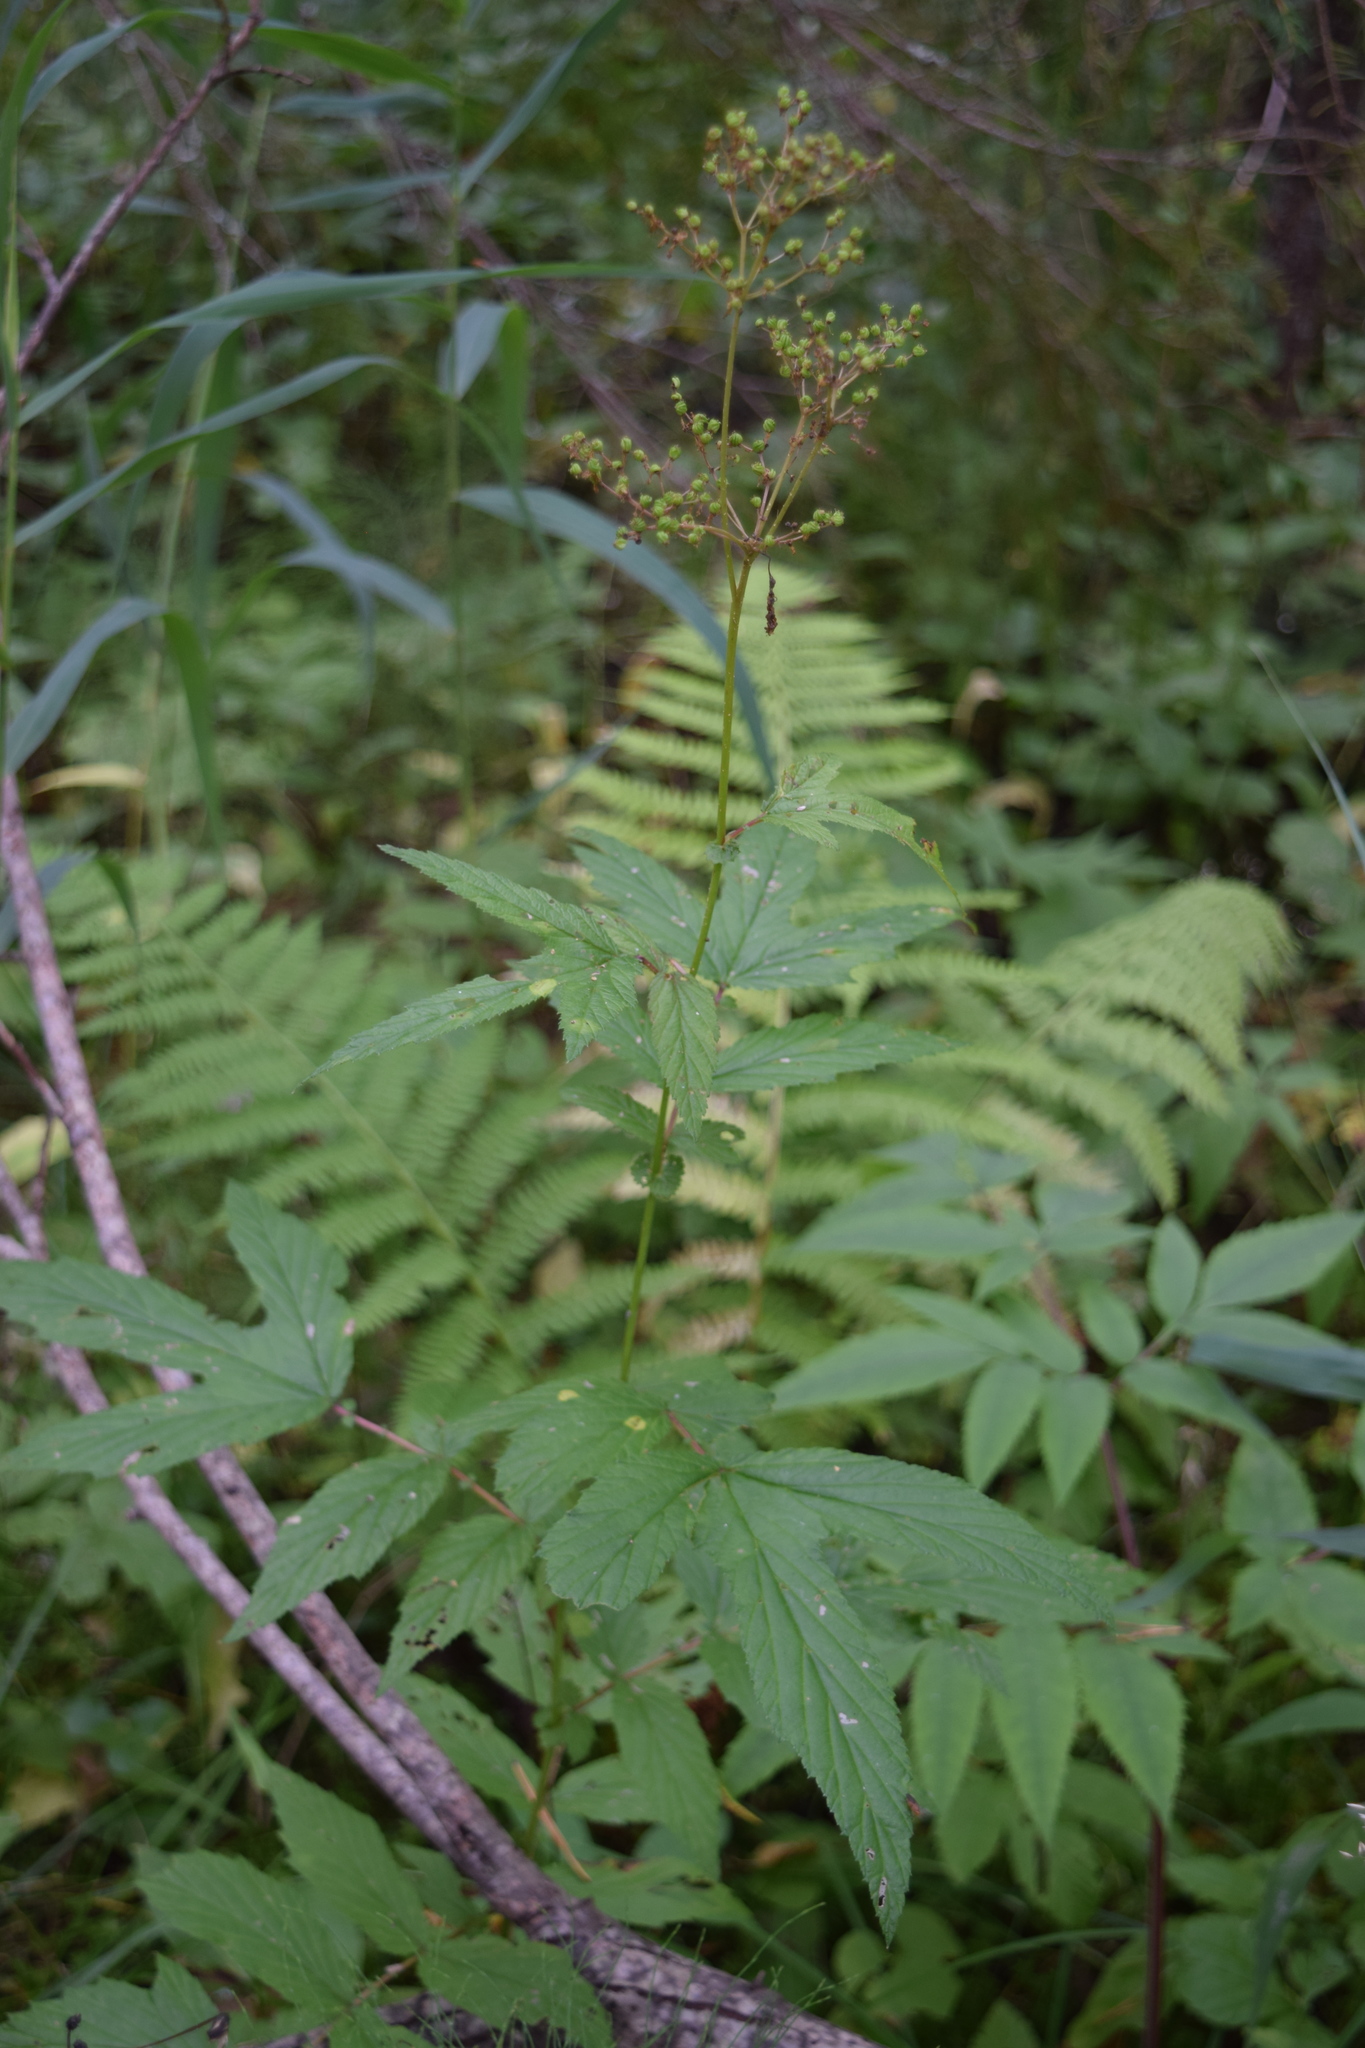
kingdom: Plantae
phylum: Tracheophyta
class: Magnoliopsida
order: Rosales
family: Rosaceae
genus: Filipendula
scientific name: Filipendula ulmaria
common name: Meadowsweet
